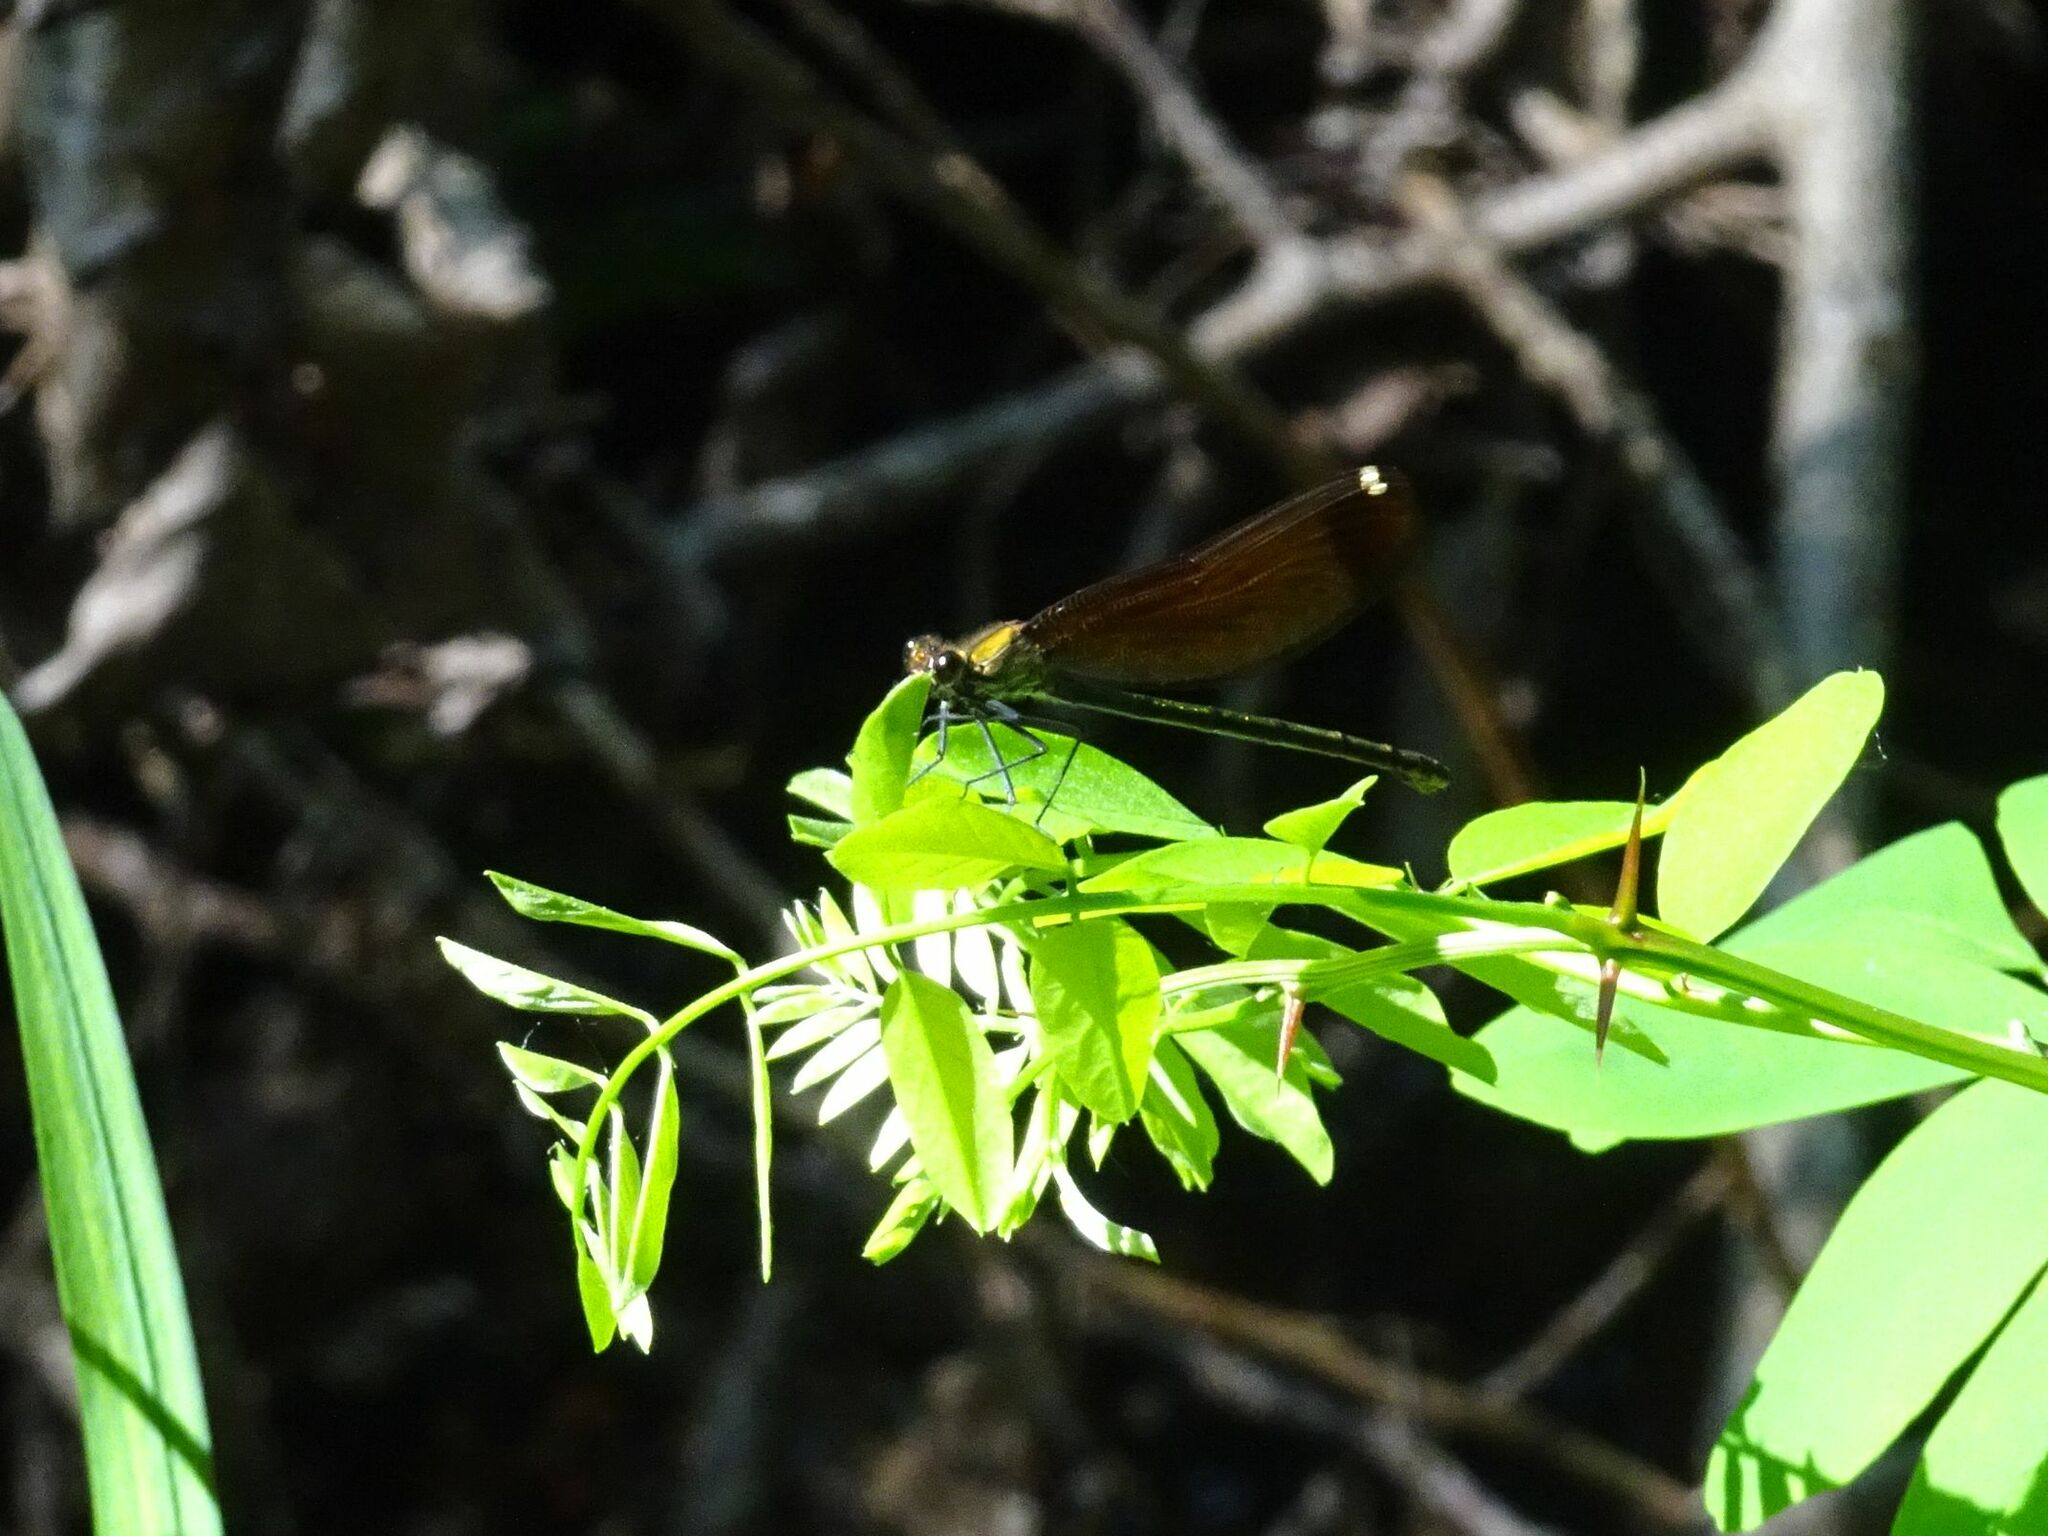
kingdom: Animalia
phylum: Arthropoda
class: Insecta
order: Odonata
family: Calopterygidae
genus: Calopteryx
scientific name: Calopteryx haemorrhoidalis
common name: Copper demoiselle
